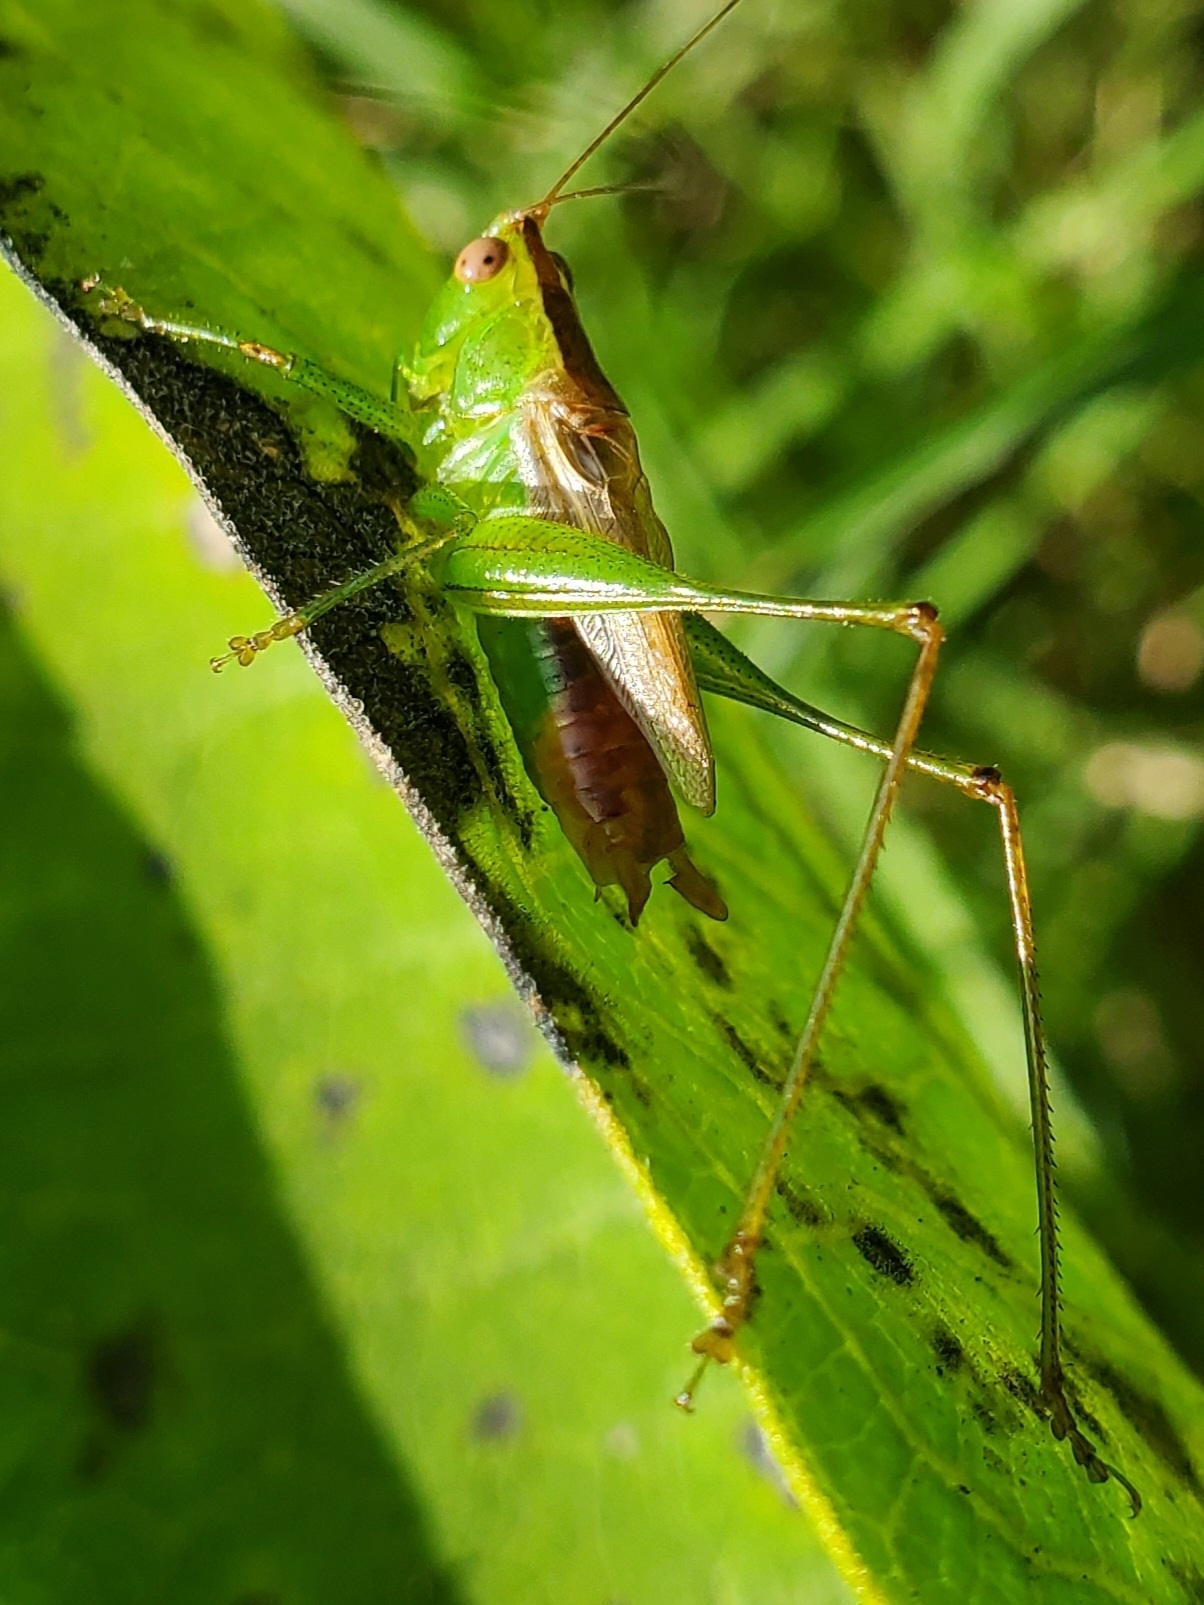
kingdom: Animalia
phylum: Arthropoda
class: Insecta
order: Orthoptera
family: Tettigoniidae
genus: Conocephalus
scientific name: Conocephalus brevipennis
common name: Short-winged meadow katydid
